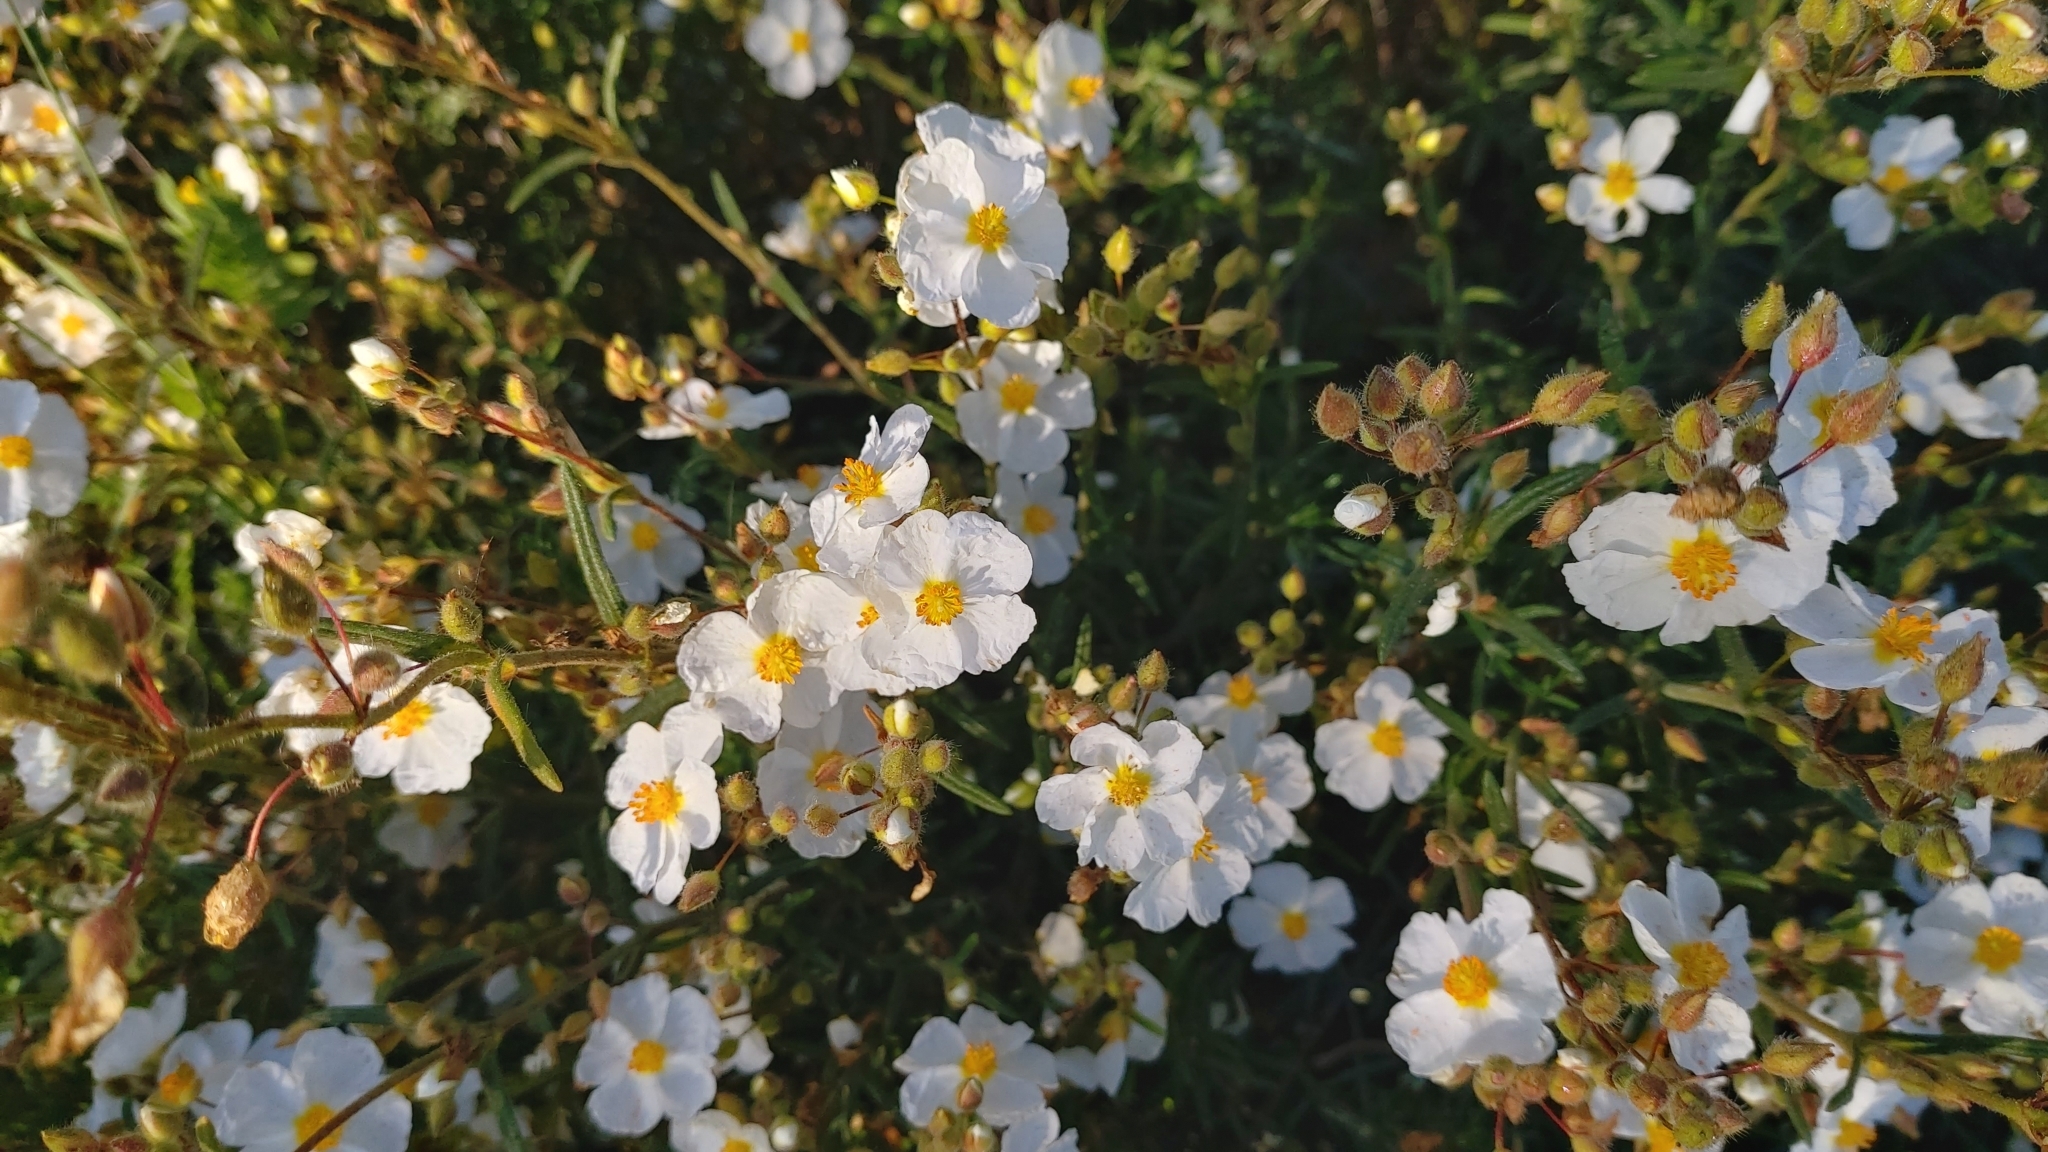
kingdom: Plantae
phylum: Tracheophyta
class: Magnoliopsida
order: Malvales
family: Cistaceae
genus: Halimium
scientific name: Halimium umbellatum
